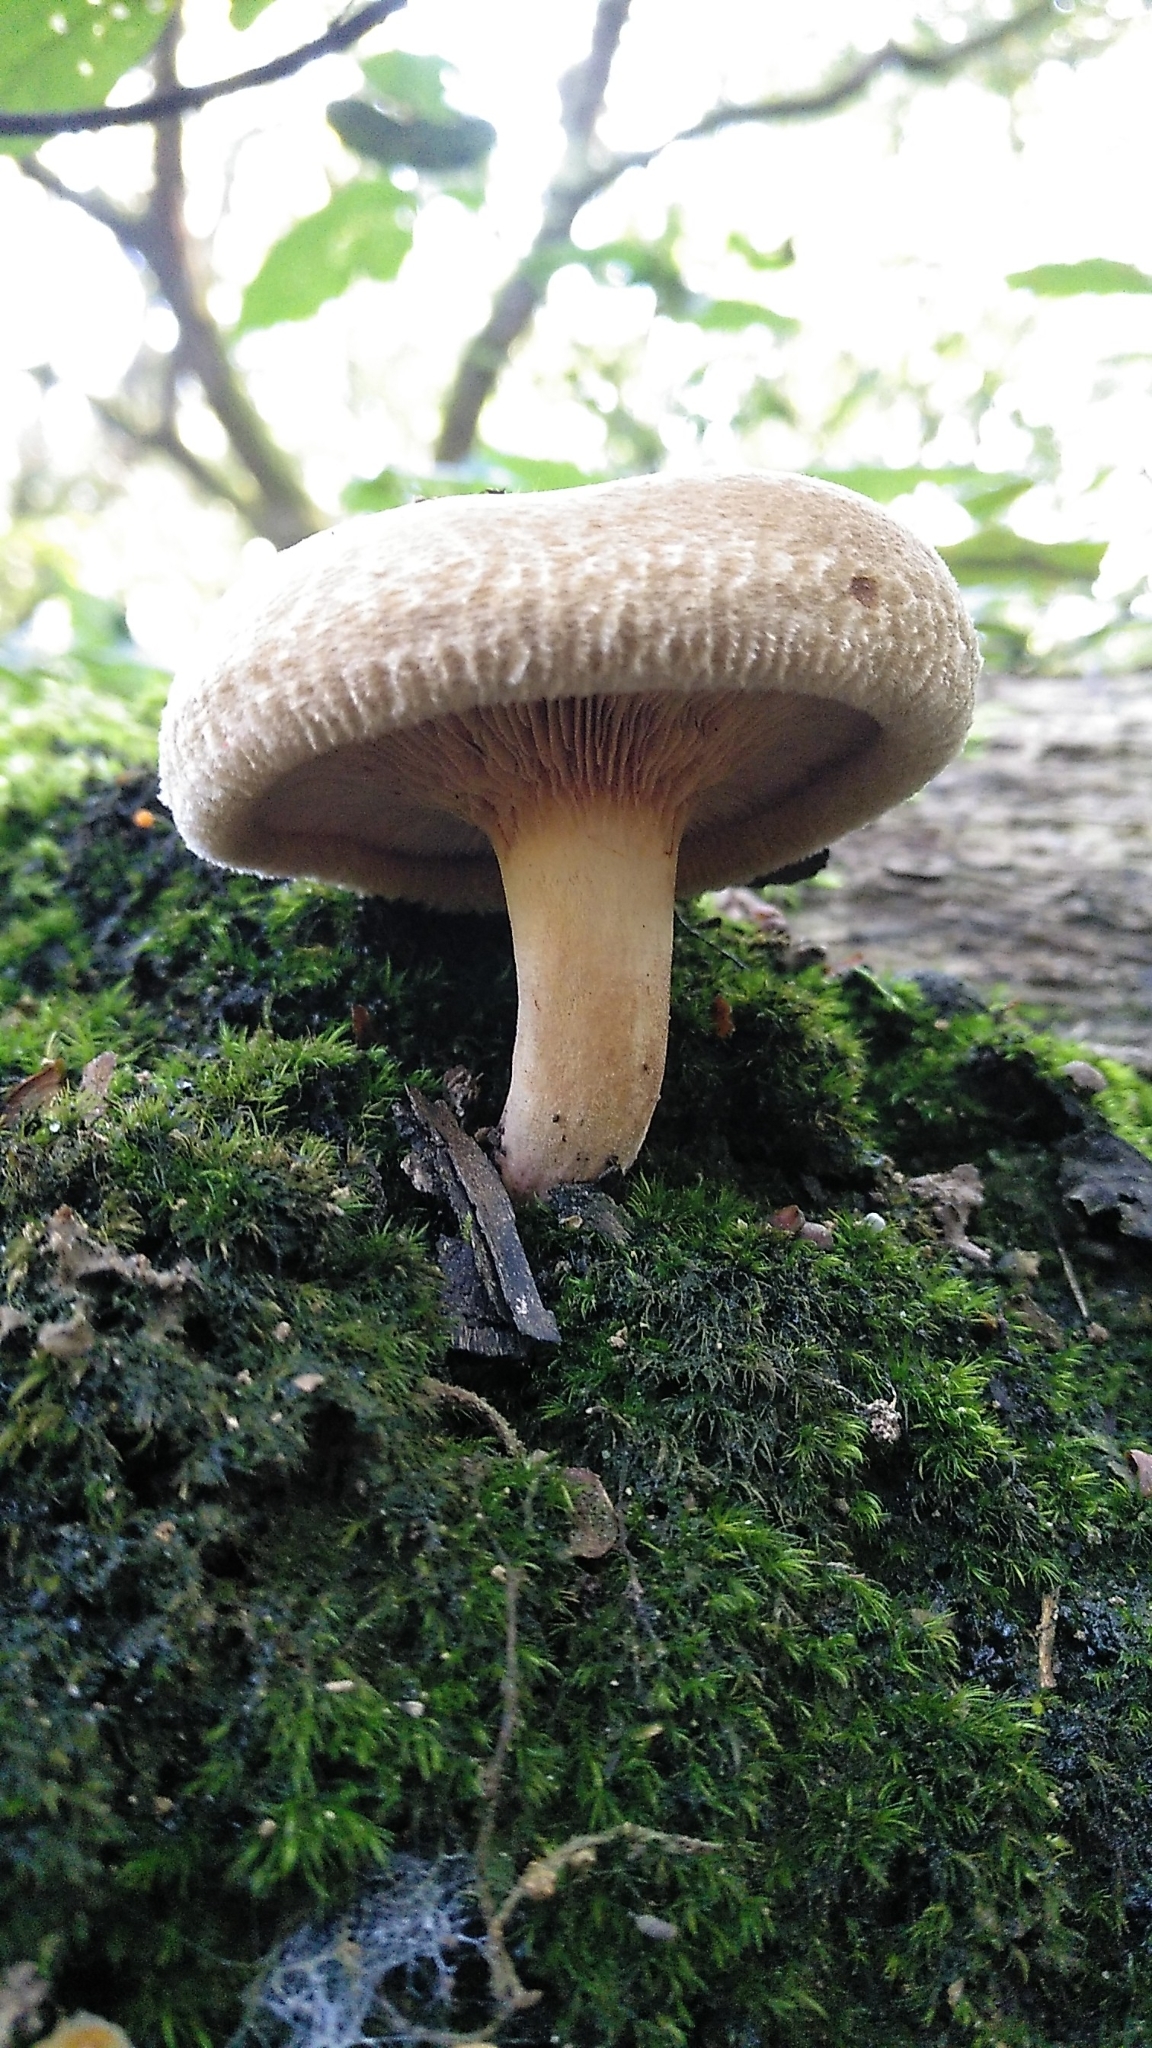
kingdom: Fungi
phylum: Basidiomycota
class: Agaricomycetes
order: Boletales
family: Paxillaceae
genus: Paxillus
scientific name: Paxillus involutus
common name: Brown roll rim
